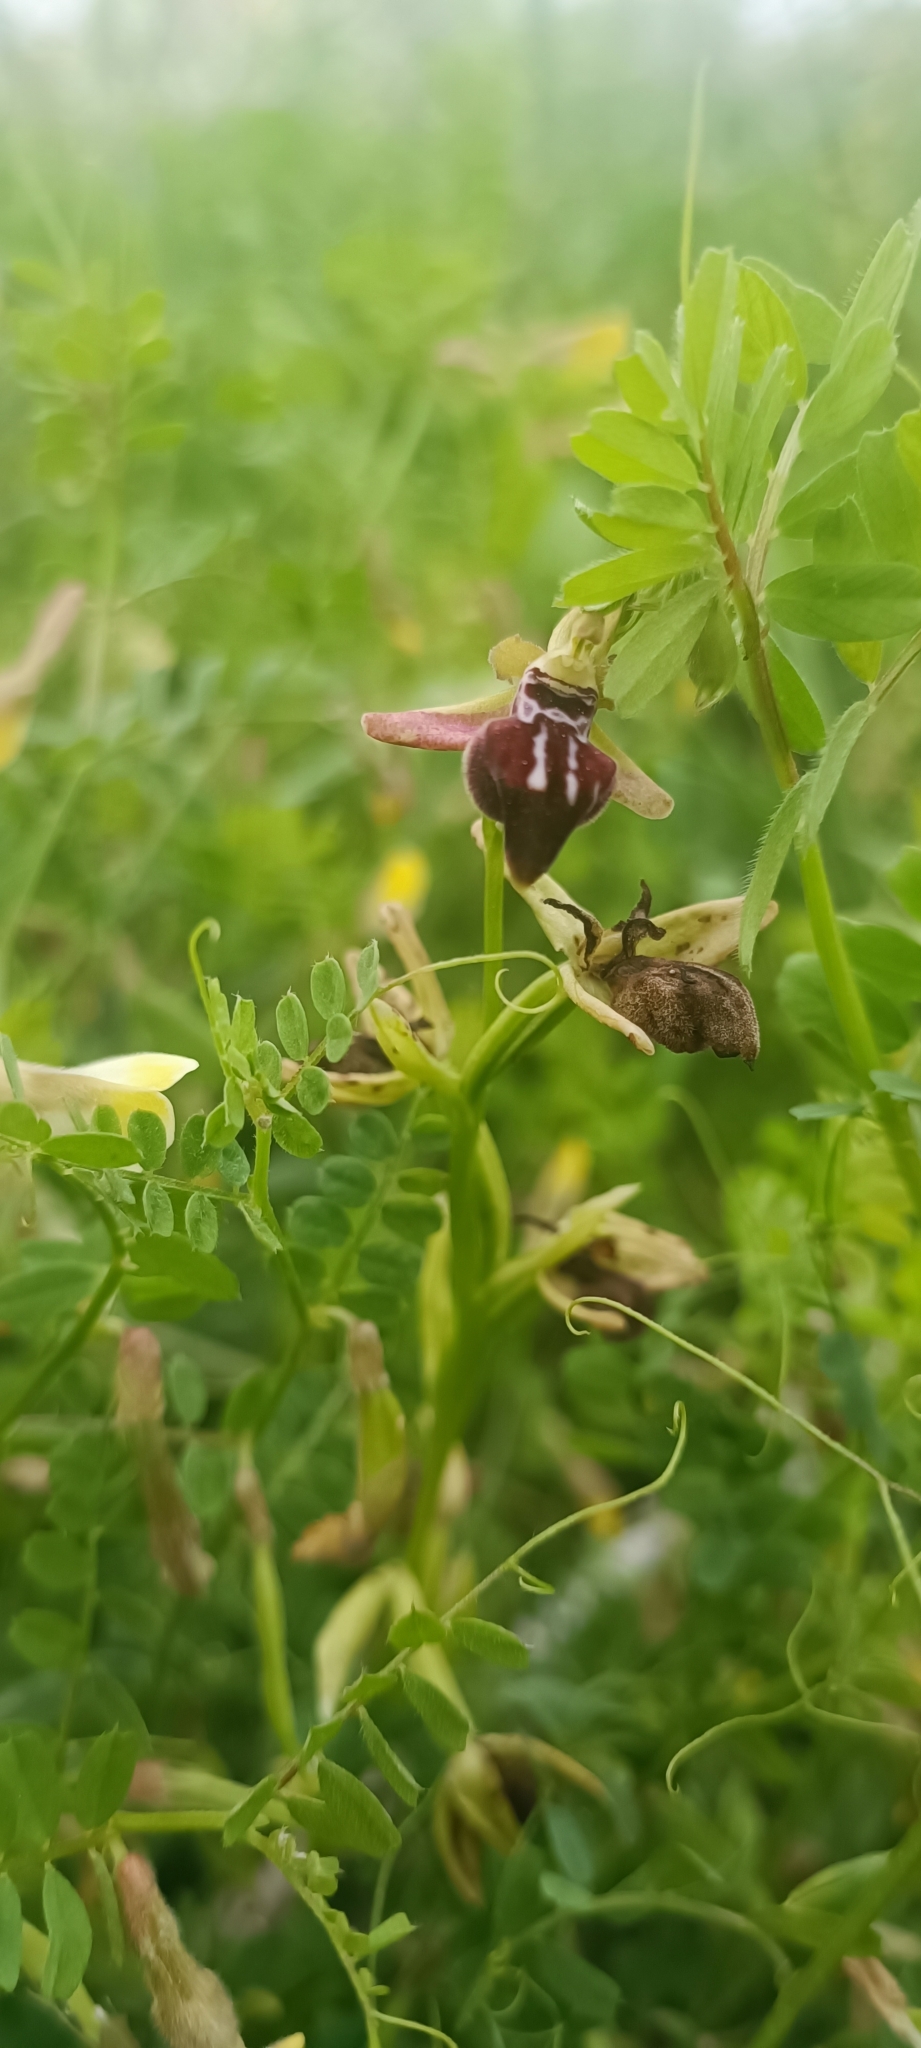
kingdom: Plantae
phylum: Tracheophyta
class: Liliopsida
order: Asparagales
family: Orchidaceae
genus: Ophrys
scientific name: Ophrys sphegodes
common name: Early spider-orchid
